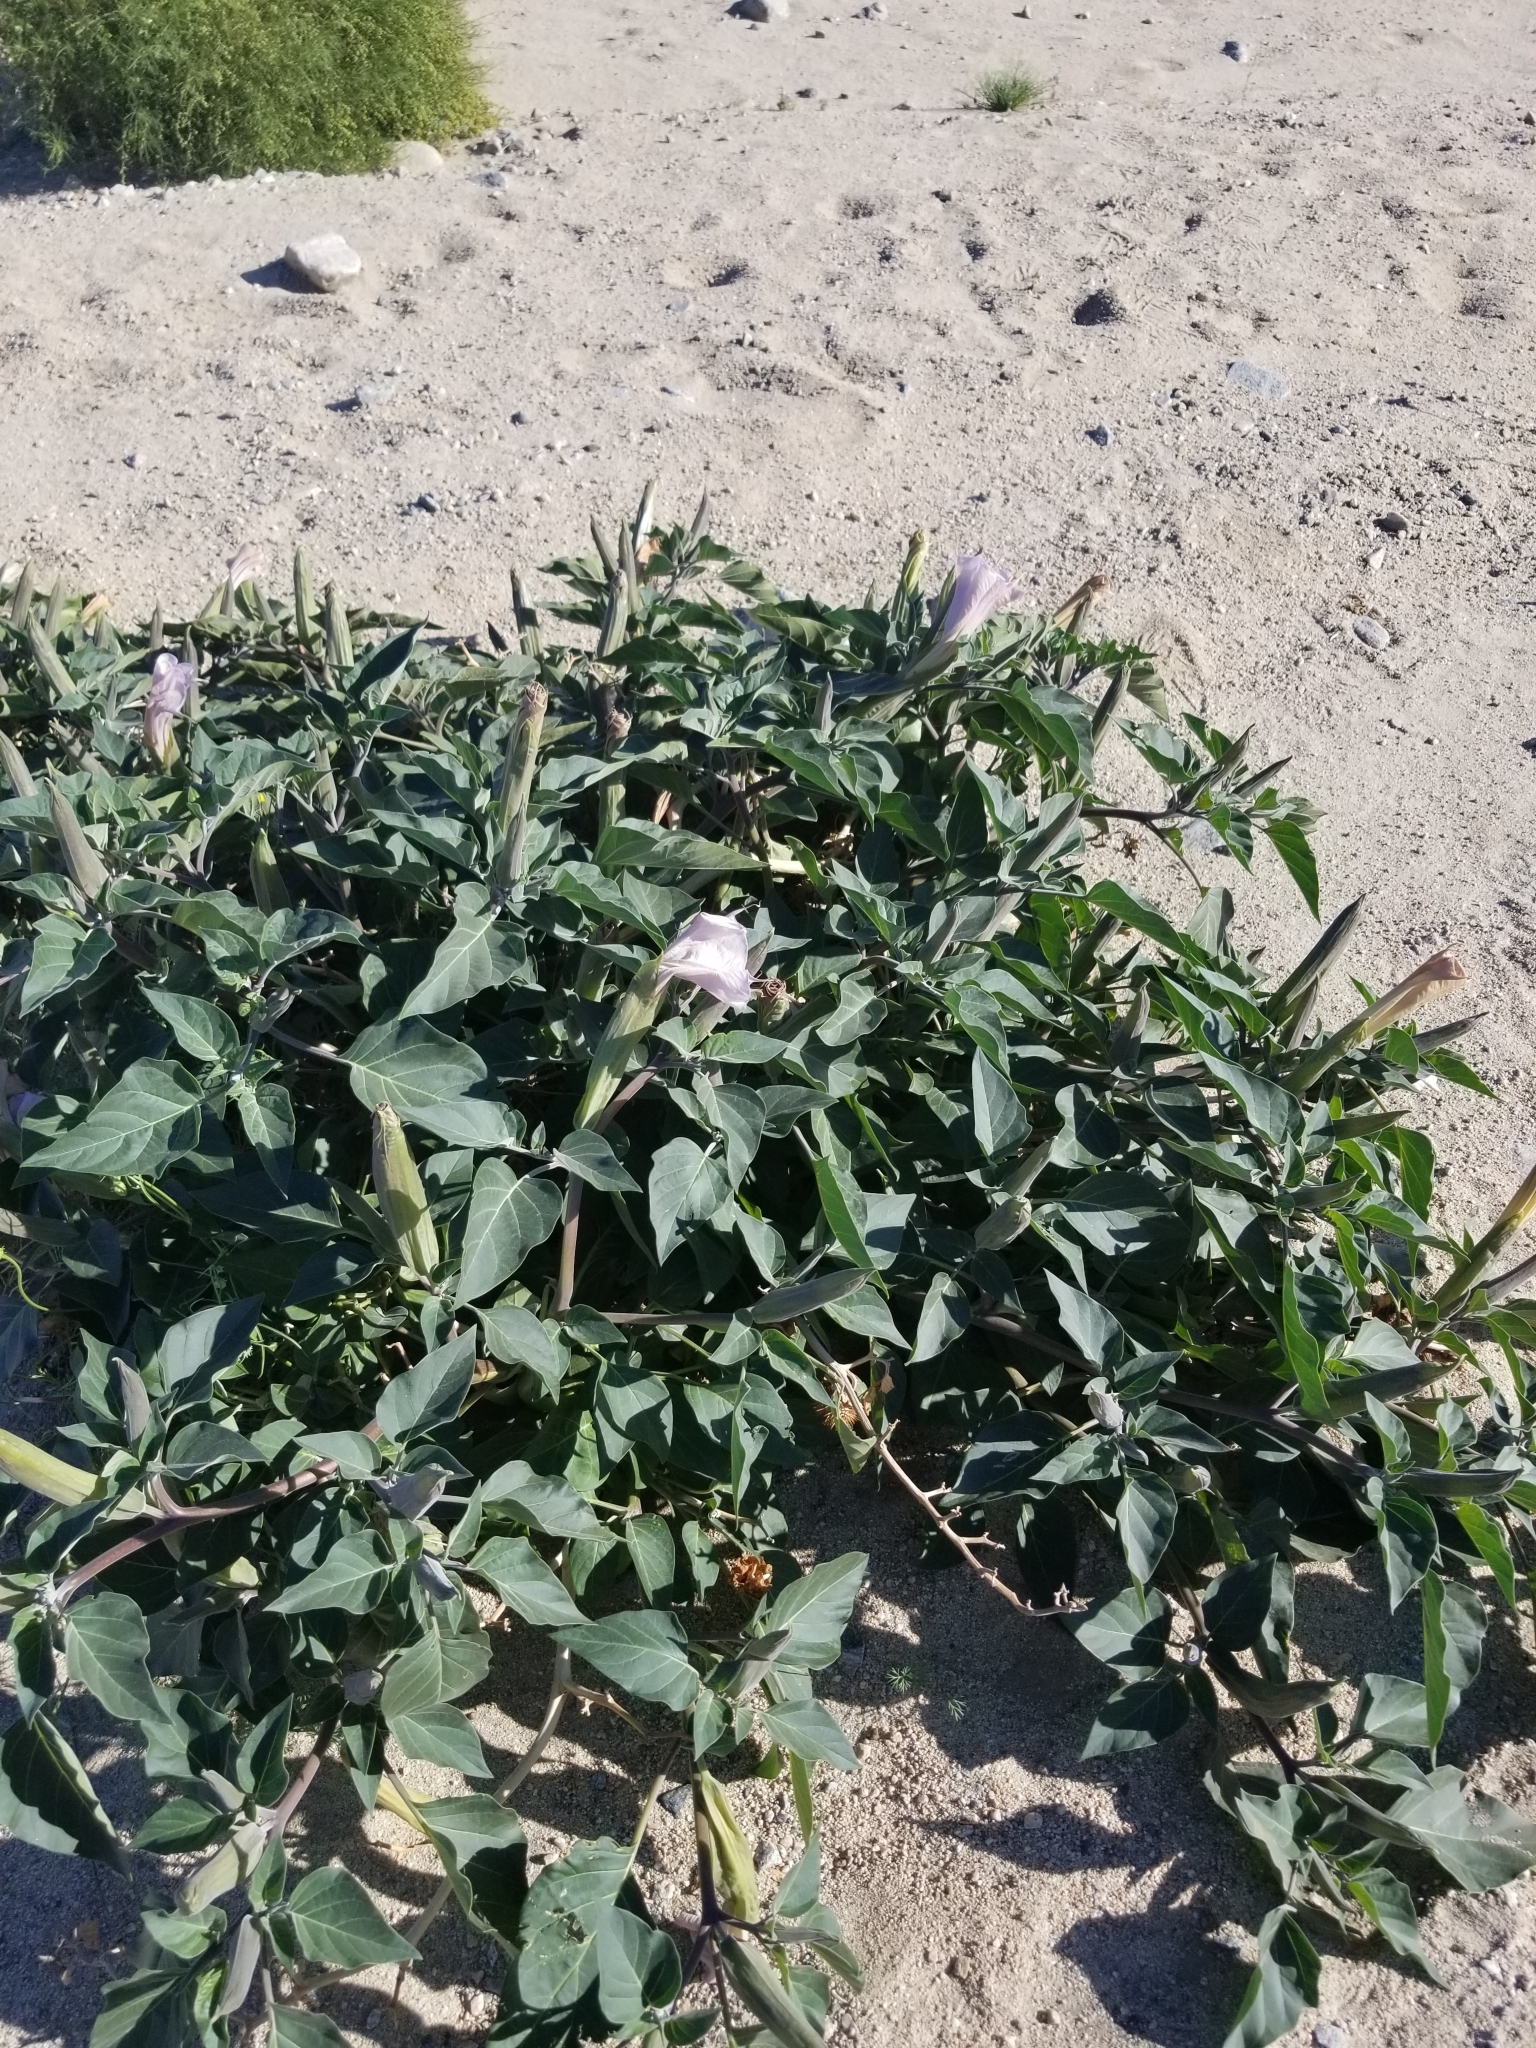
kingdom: Plantae
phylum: Tracheophyta
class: Magnoliopsida
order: Solanales
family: Solanaceae
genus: Datura
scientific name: Datura wrightii
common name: Sacred thorn-apple
